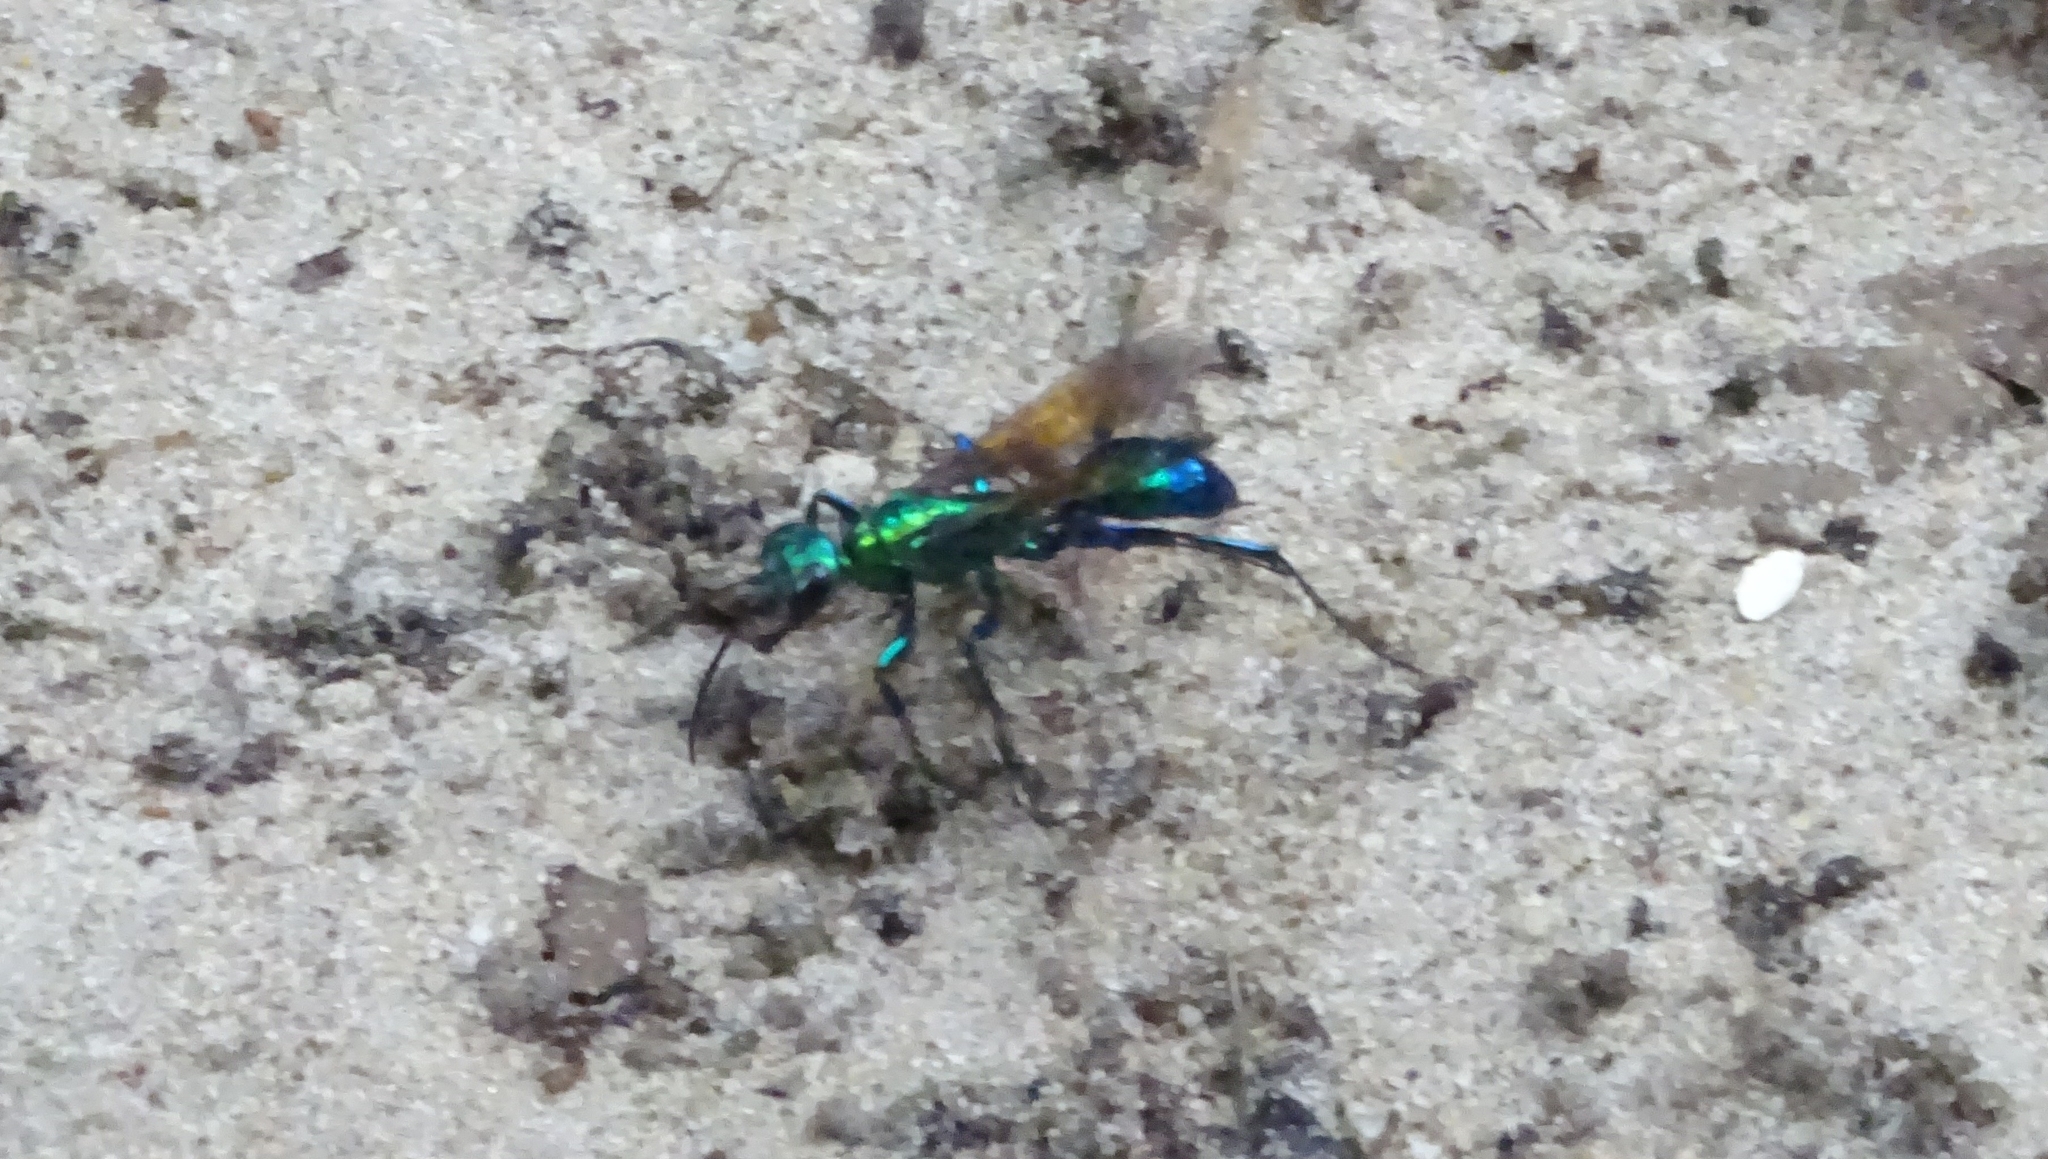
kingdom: Animalia
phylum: Arthropoda
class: Insecta
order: Hymenoptera
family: Sphecidae
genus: Chlorion
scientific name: Chlorion lobatum
